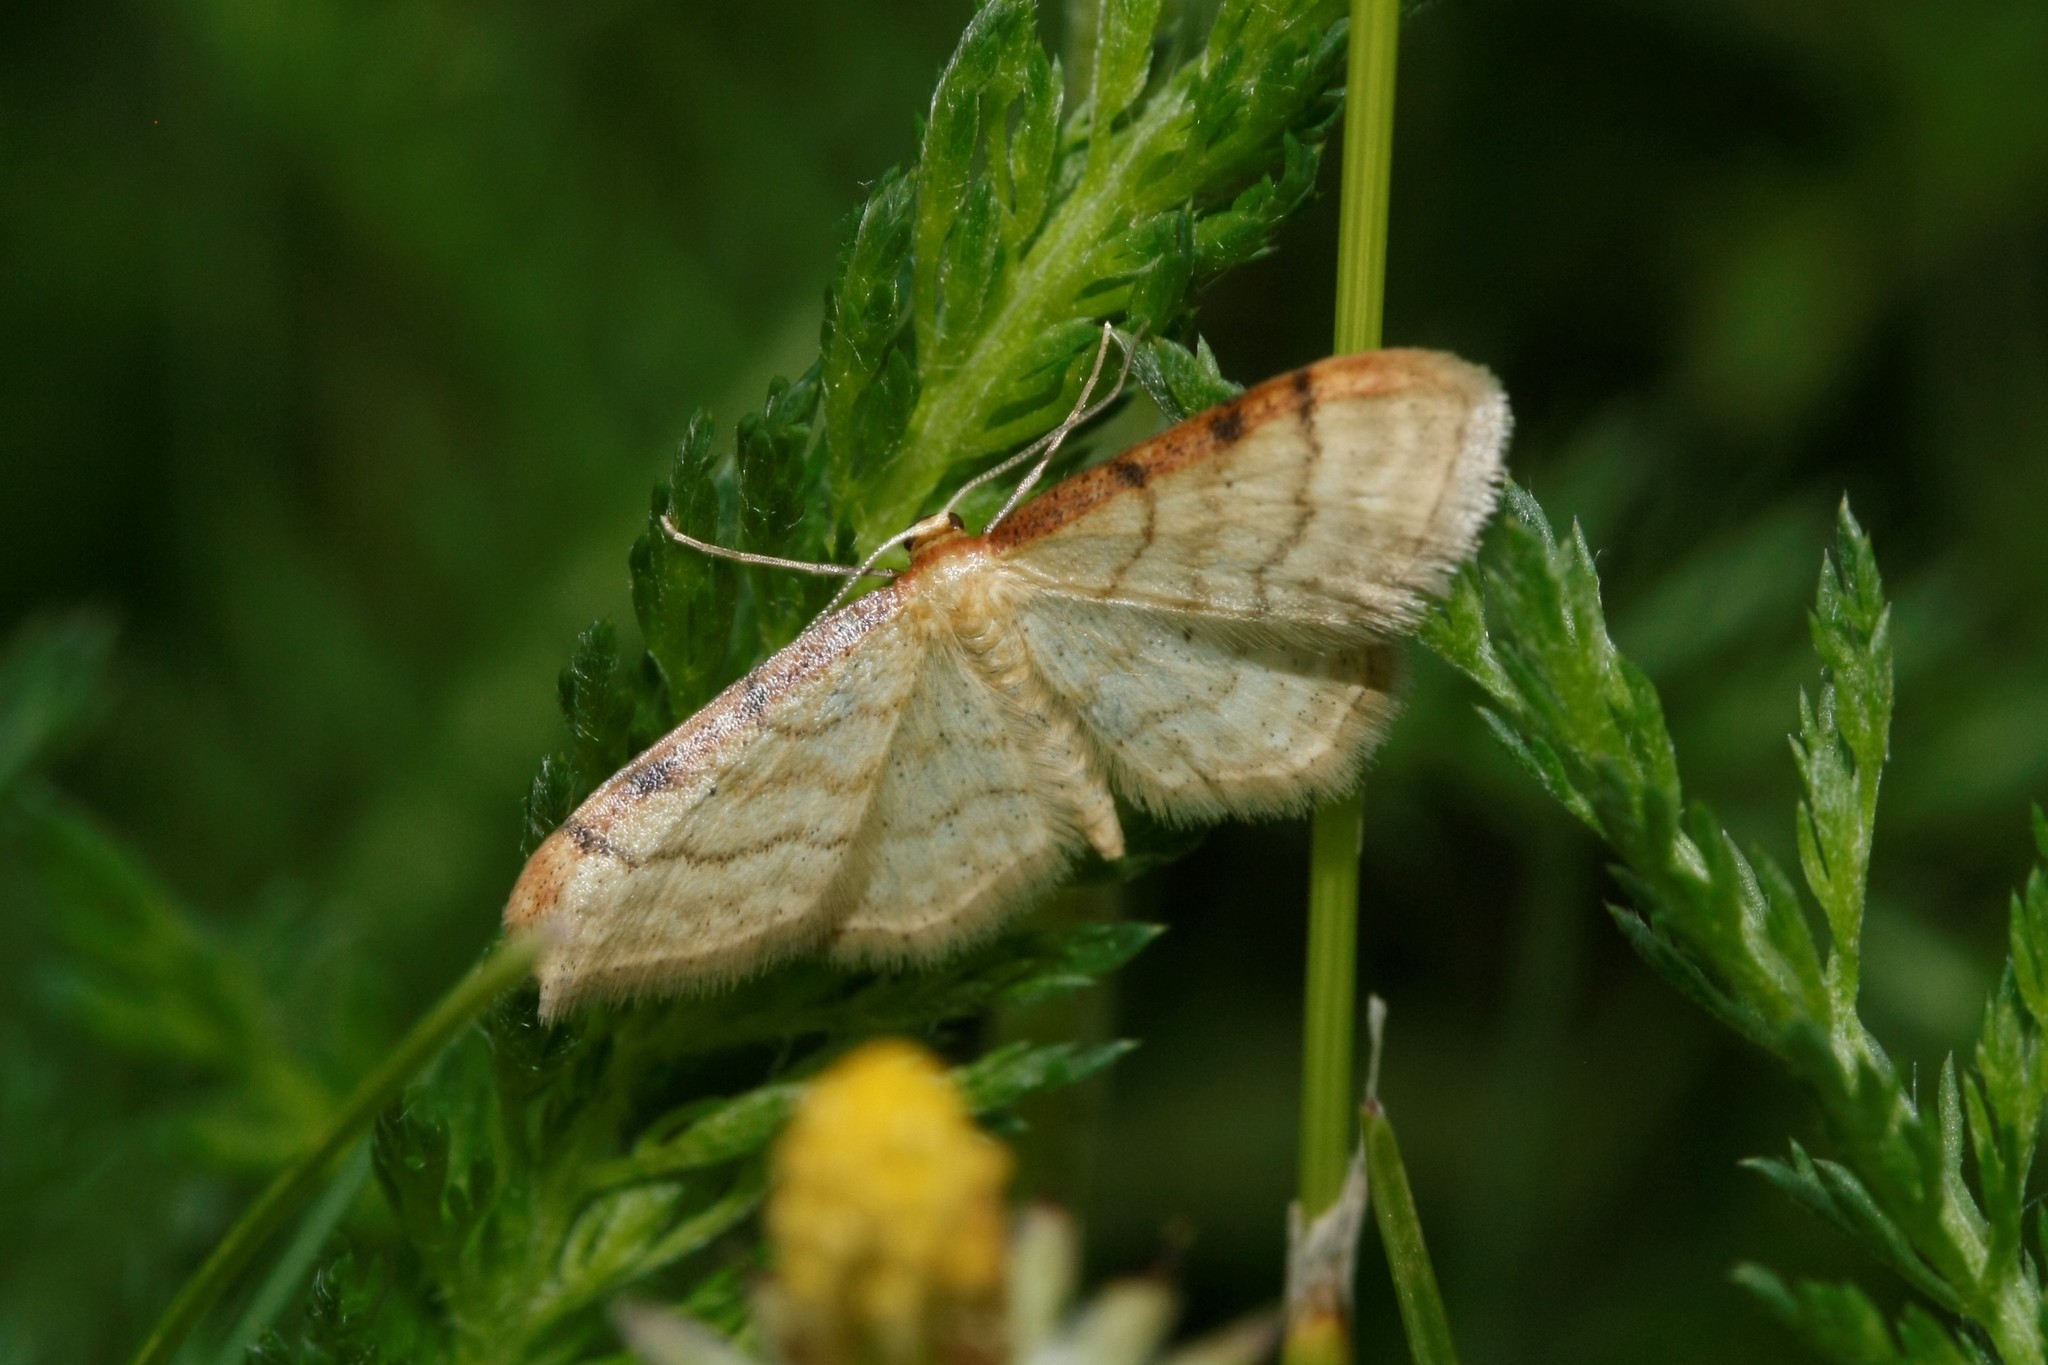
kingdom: Animalia
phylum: Arthropoda
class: Insecta
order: Lepidoptera
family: Geometridae
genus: Idaea
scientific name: Idaea humiliata
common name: Isle of wight wave
